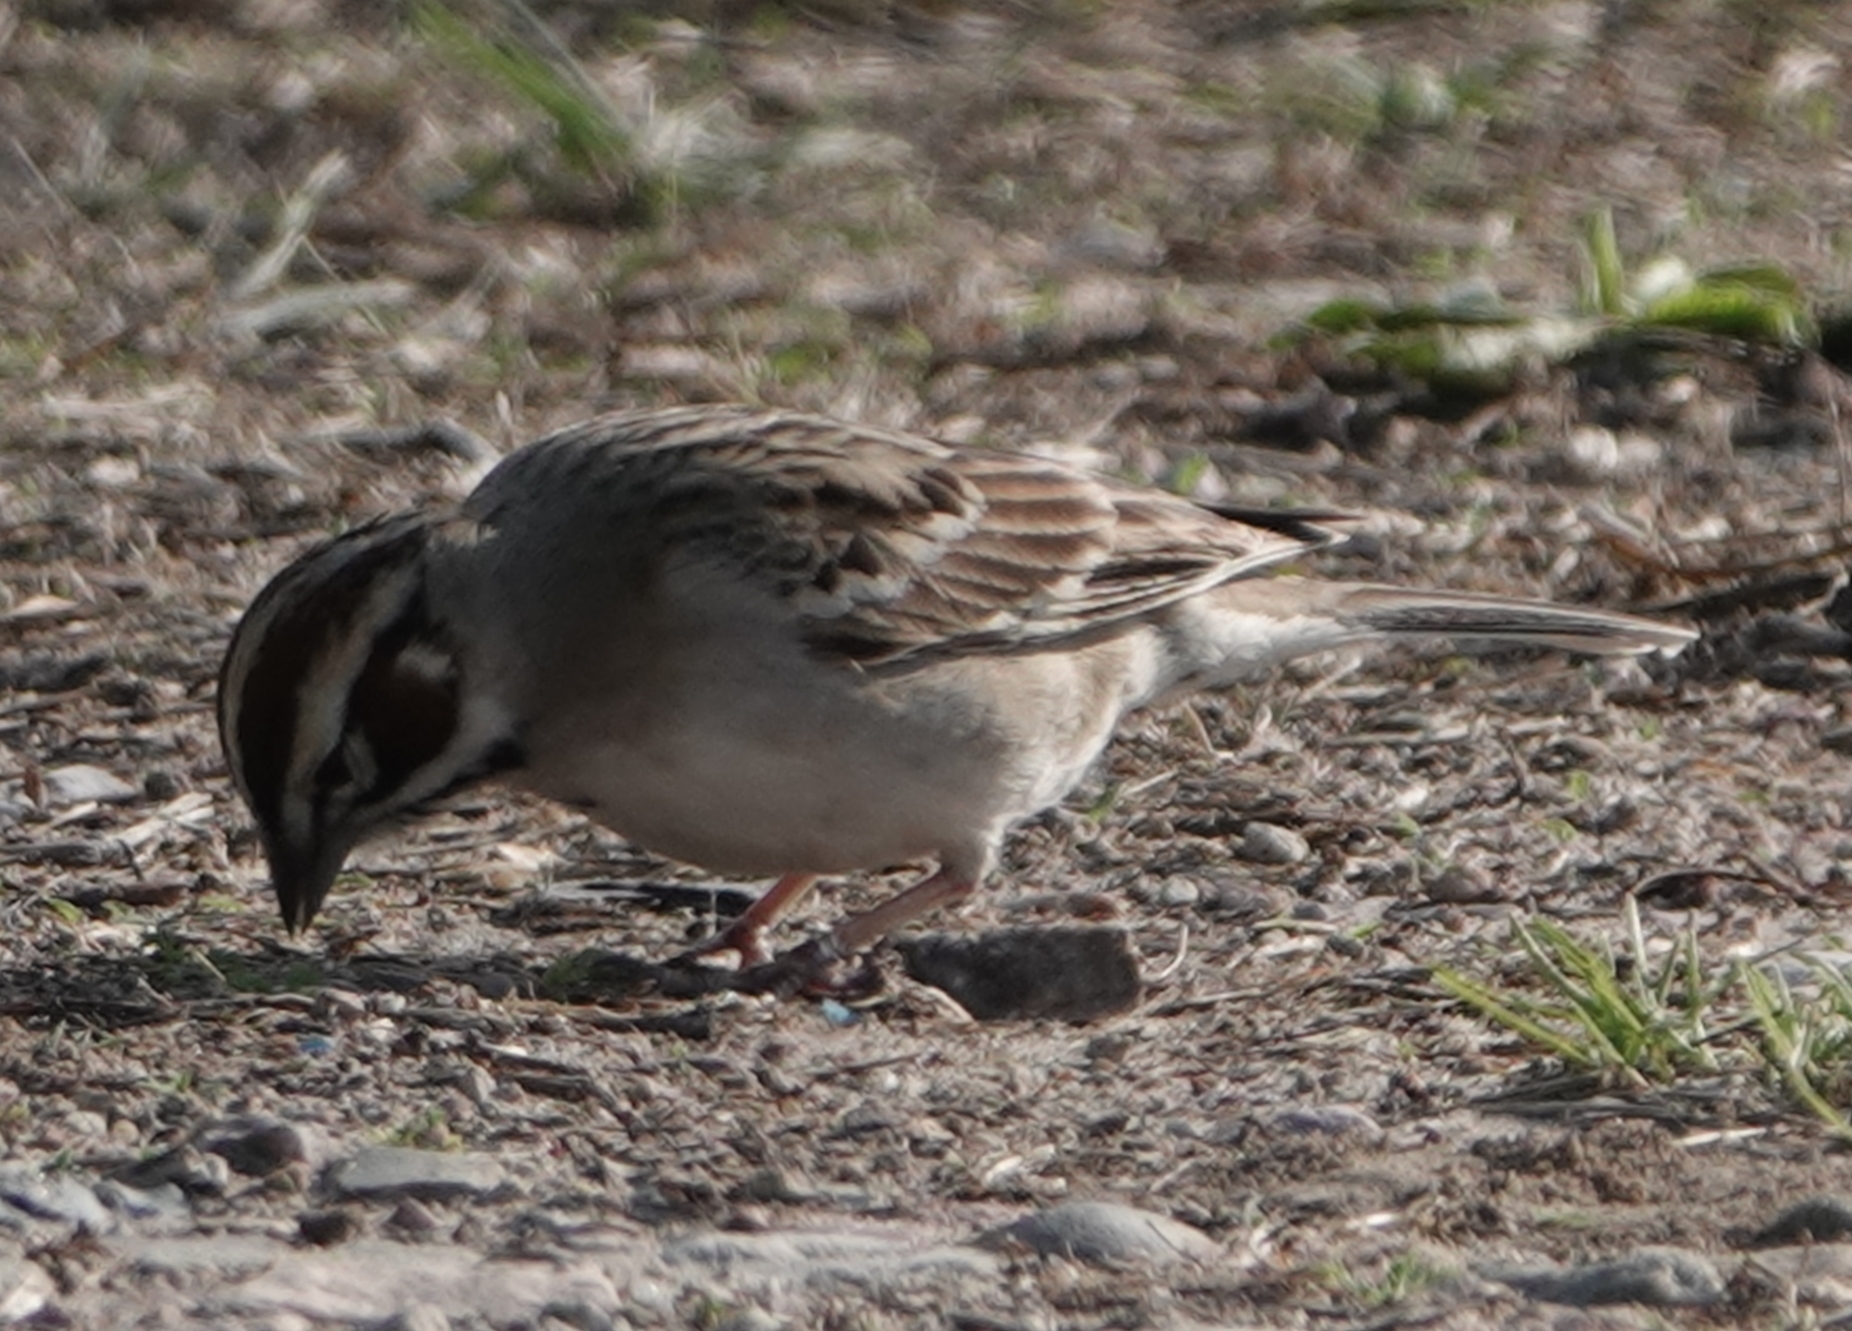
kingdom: Animalia
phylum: Chordata
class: Aves
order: Passeriformes
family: Passerellidae
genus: Chondestes
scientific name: Chondestes grammacus
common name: Lark sparrow
